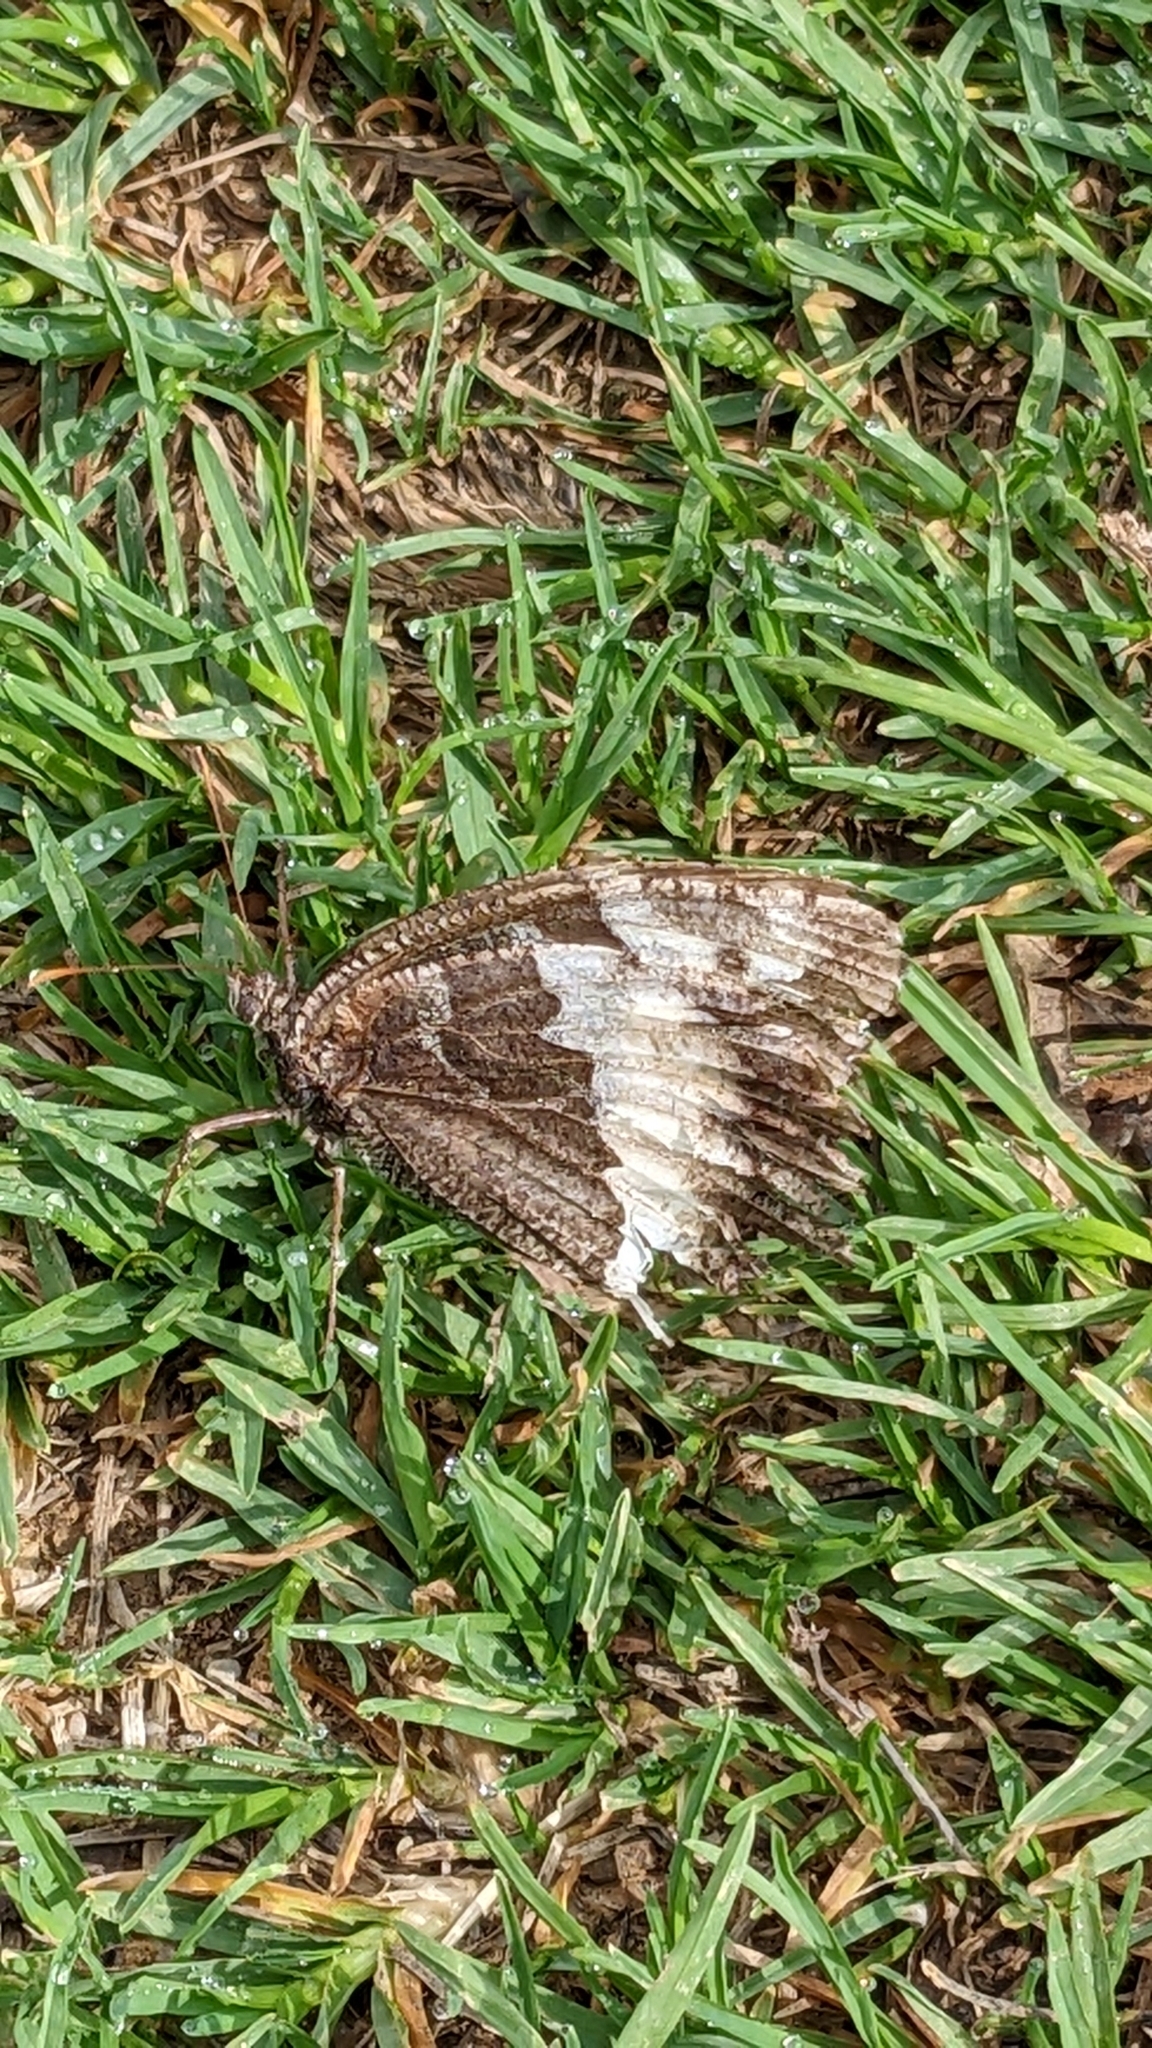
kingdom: Animalia
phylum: Arthropoda
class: Insecta
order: Lepidoptera
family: Lycaenidae
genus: Loweia
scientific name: Loweia tityrus
